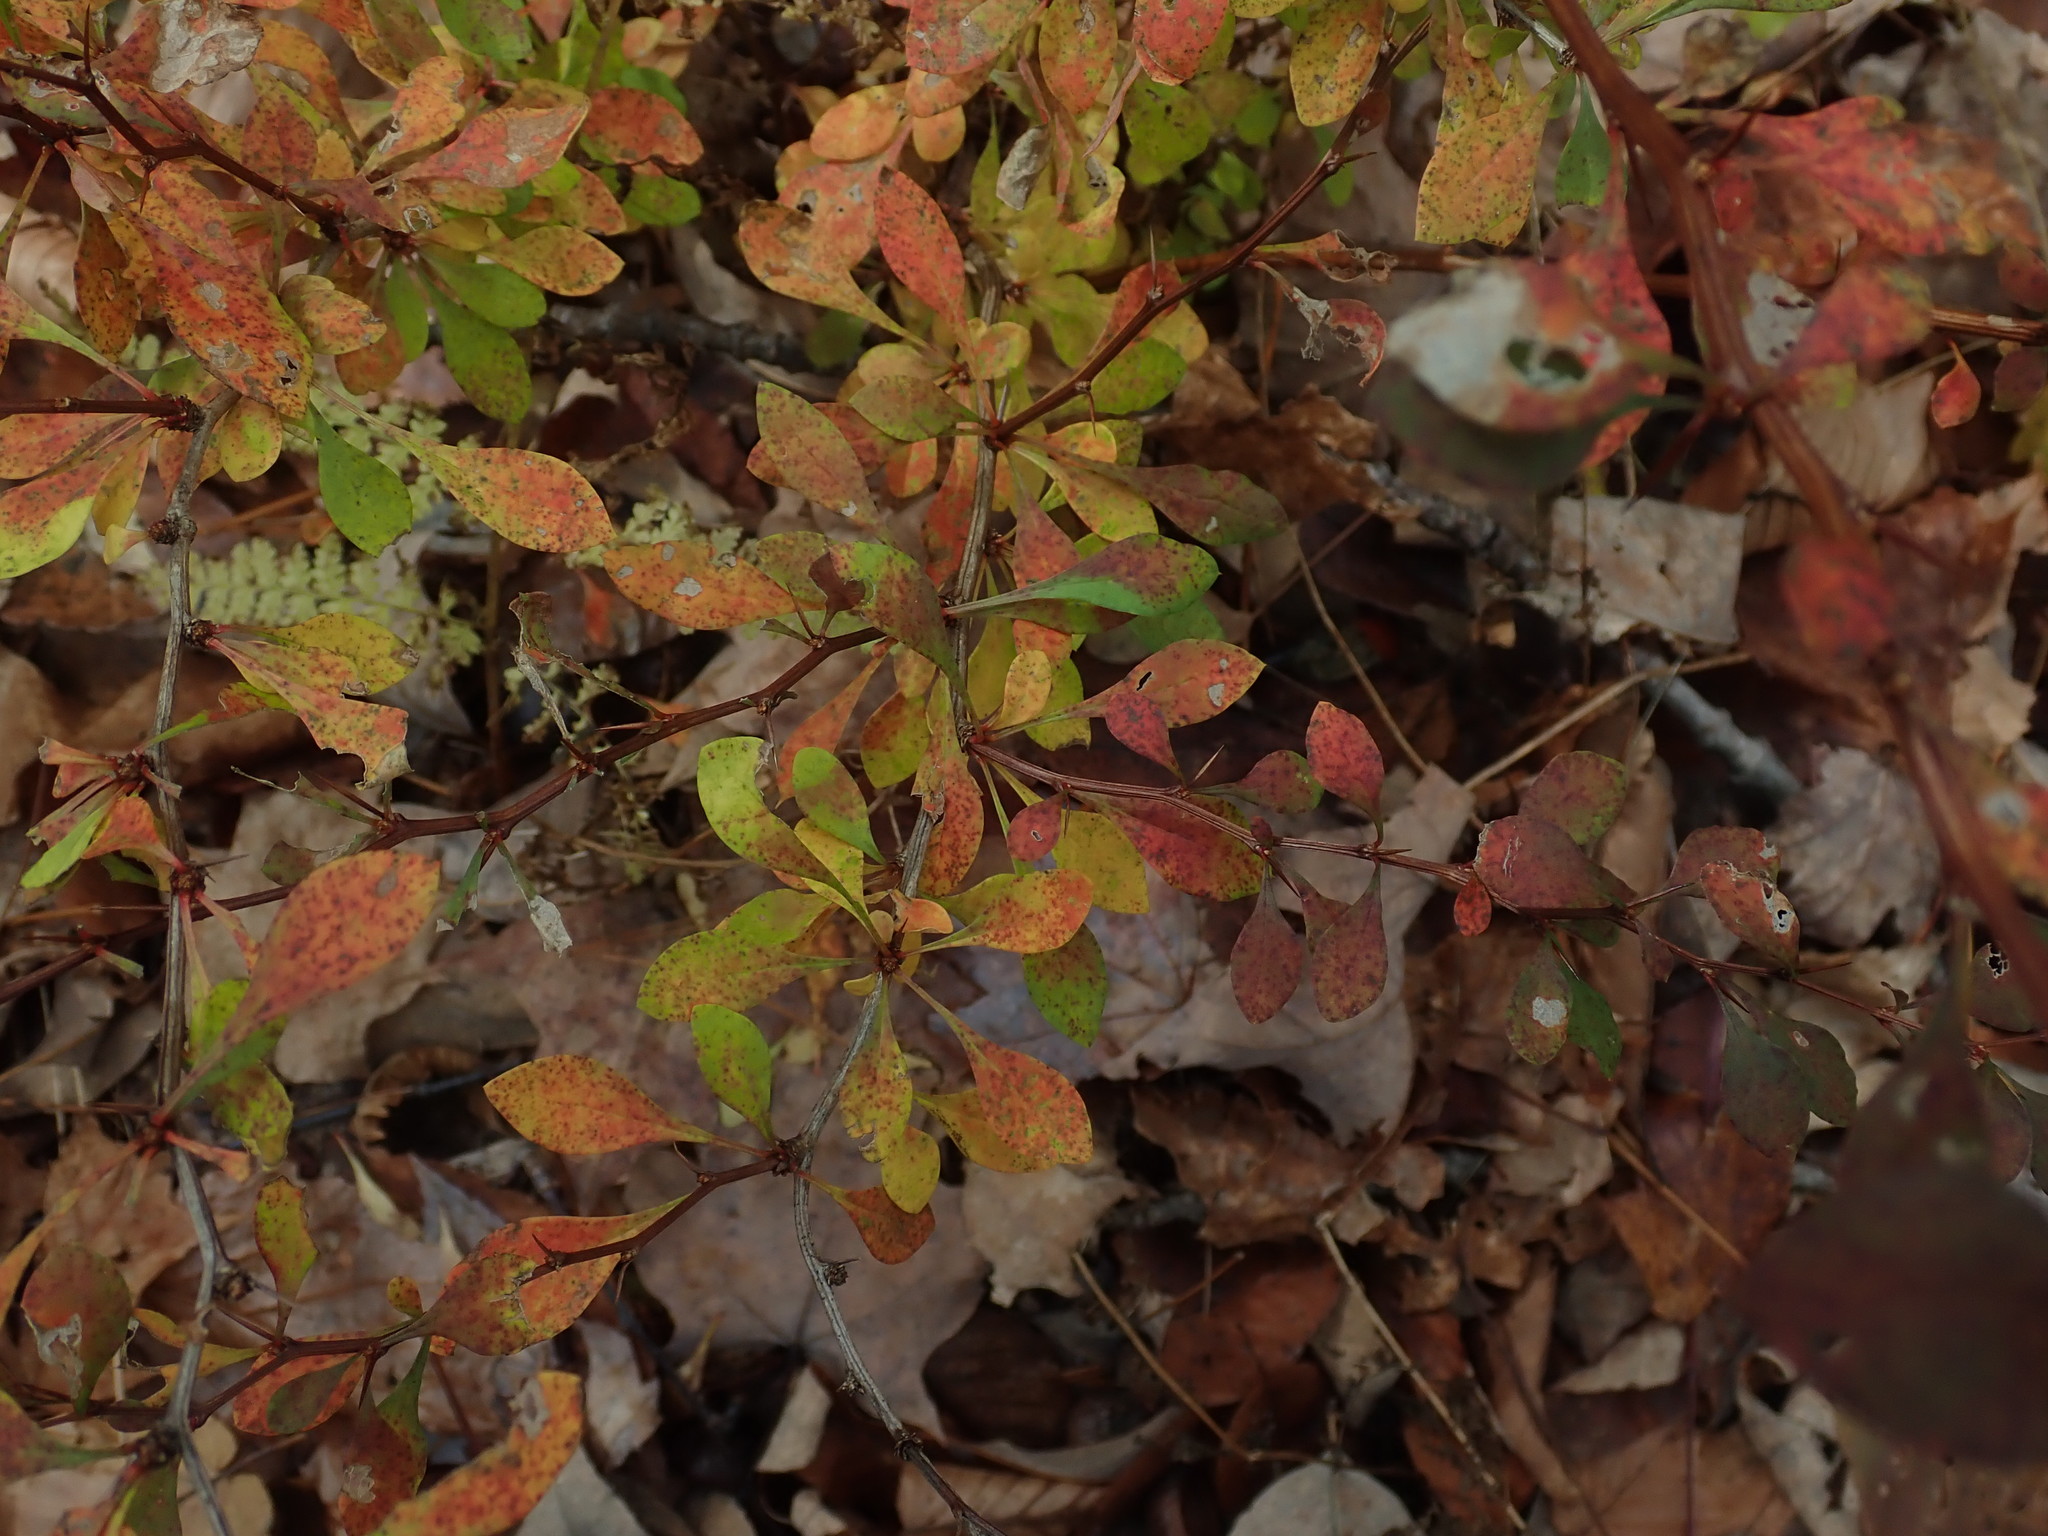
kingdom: Plantae
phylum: Tracheophyta
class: Magnoliopsida
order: Ranunculales
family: Berberidaceae
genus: Berberis
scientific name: Berberis thunbergii
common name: Japanese barberry
